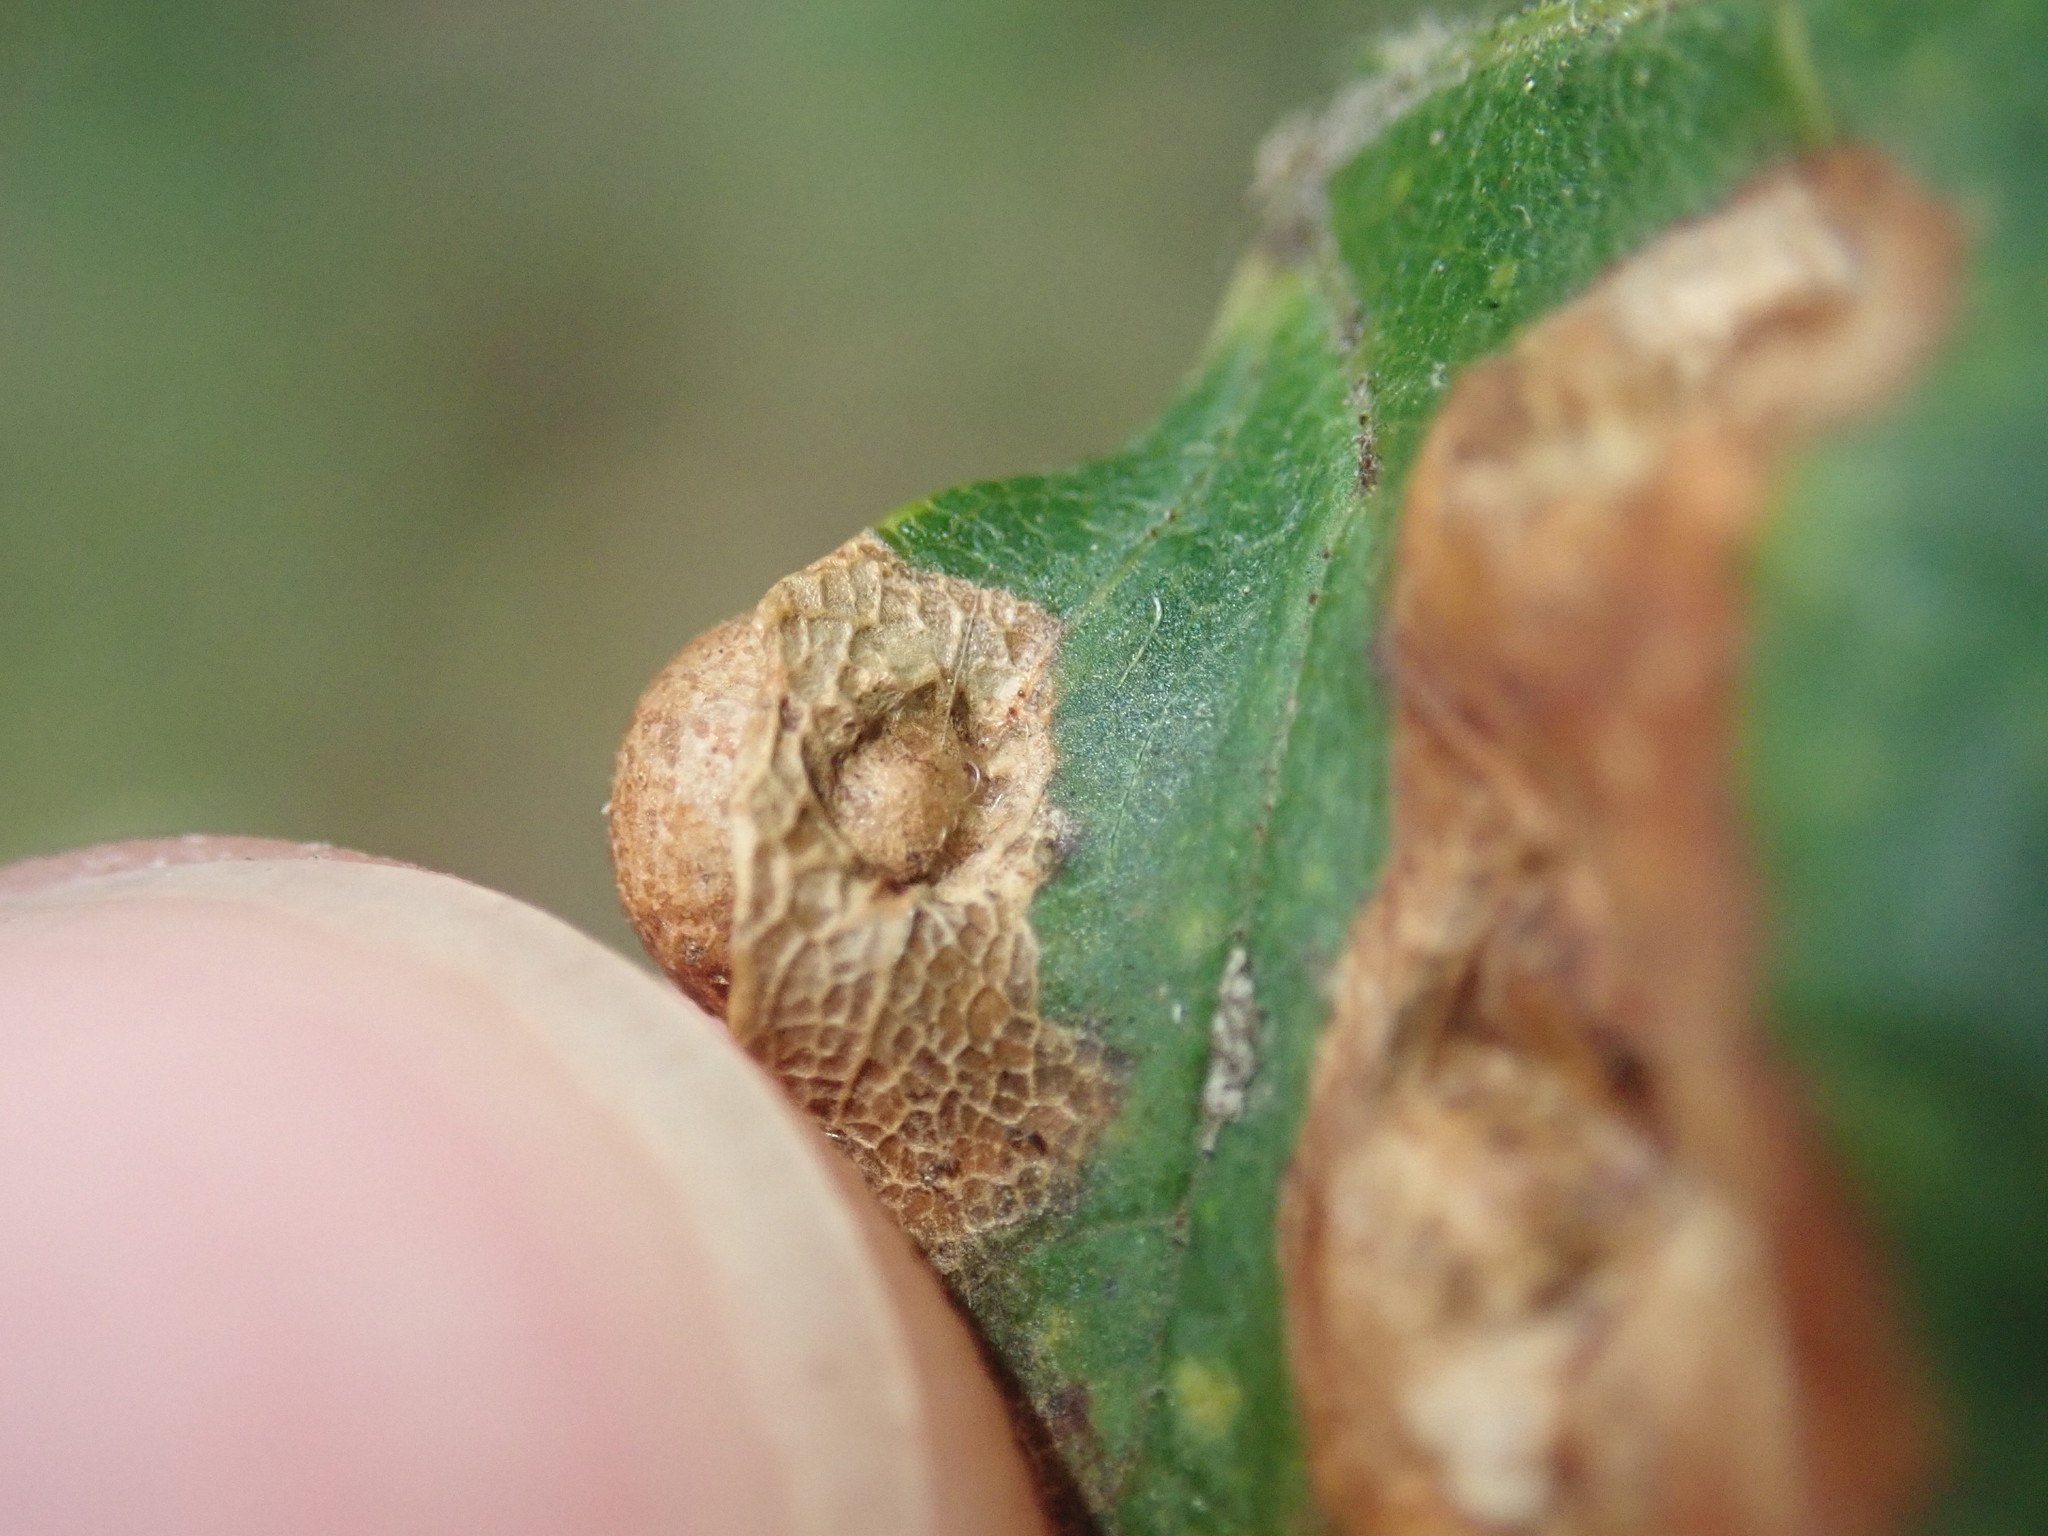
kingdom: Animalia
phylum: Arthropoda
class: Insecta
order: Hymenoptera
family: Cynipidae
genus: Pediaspis
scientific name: Pediaspis aceris
